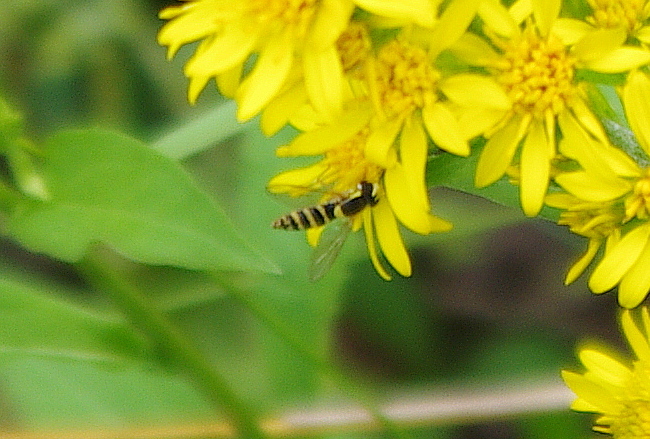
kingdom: Animalia
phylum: Arthropoda
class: Insecta
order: Diptera
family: Syrphidae
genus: Sphaerophoria
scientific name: Sphaerophoria
